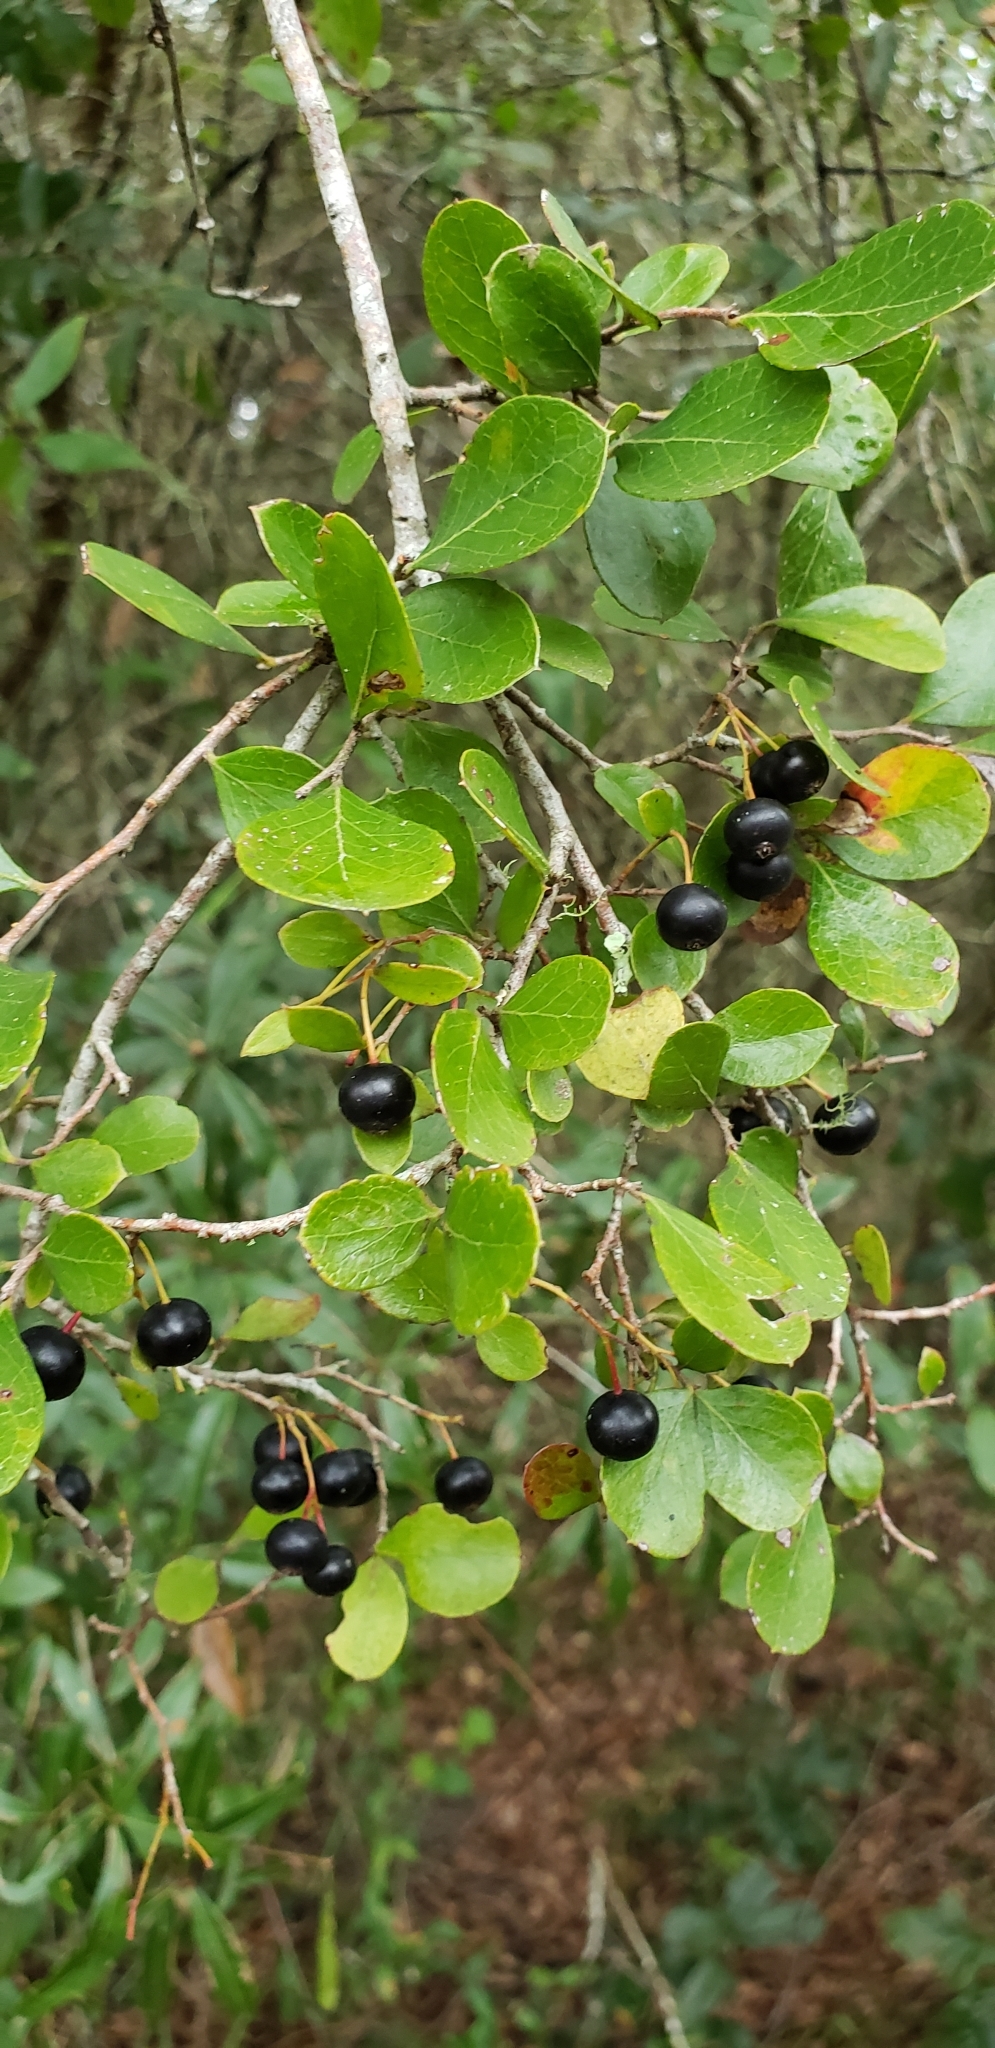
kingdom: Plantae
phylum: Tracheophyta
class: Magnoliopsida
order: Ericales
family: Ericaceae
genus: Vaccinium
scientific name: Vaccinium arboreum
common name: Farkleberry
